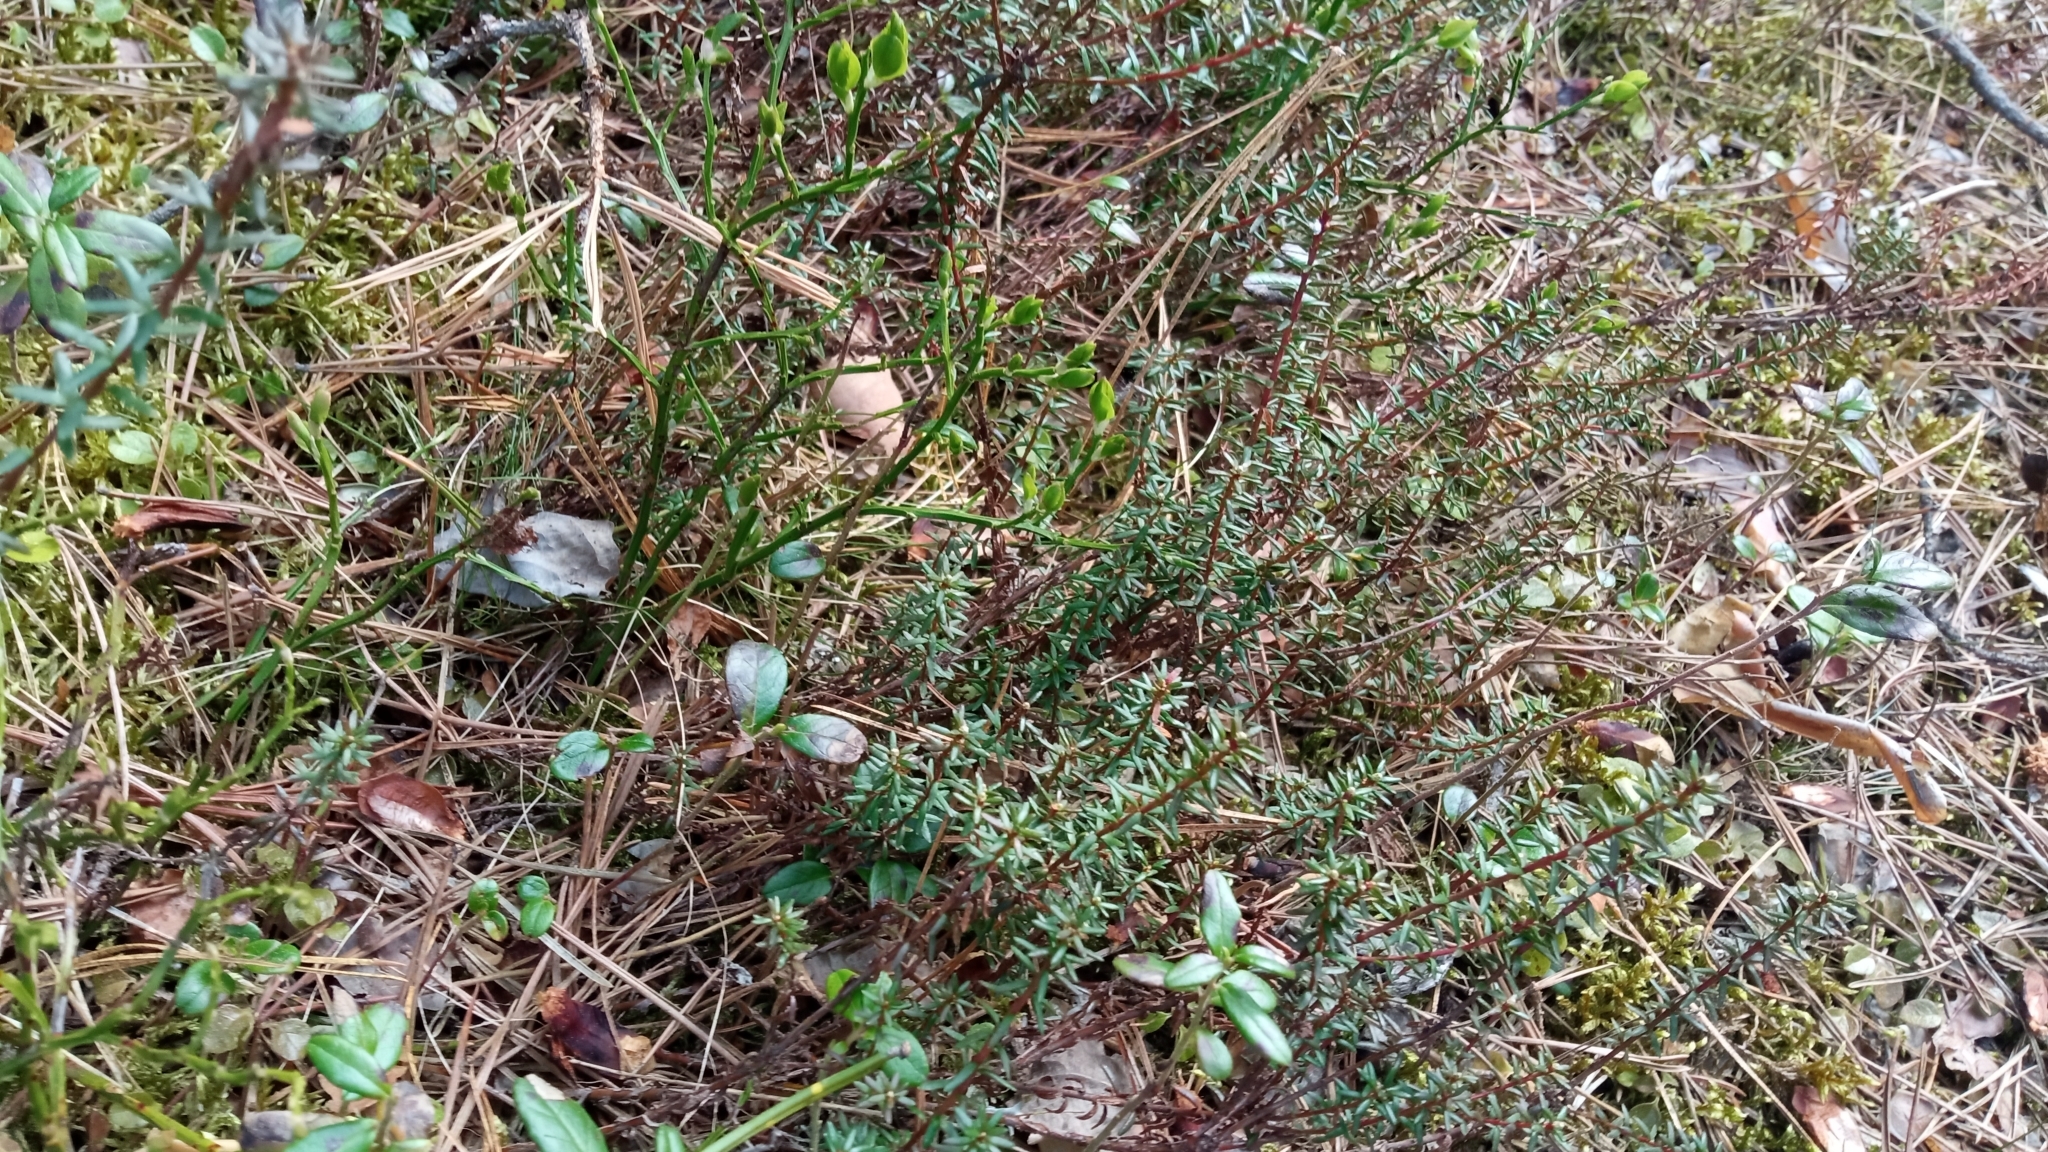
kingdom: Plantae
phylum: Tracheophyta
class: Magnoliopsida
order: Ericales
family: Ericaceae
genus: Empetrum
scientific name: Empetrum nigrum
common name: Black crowberry
